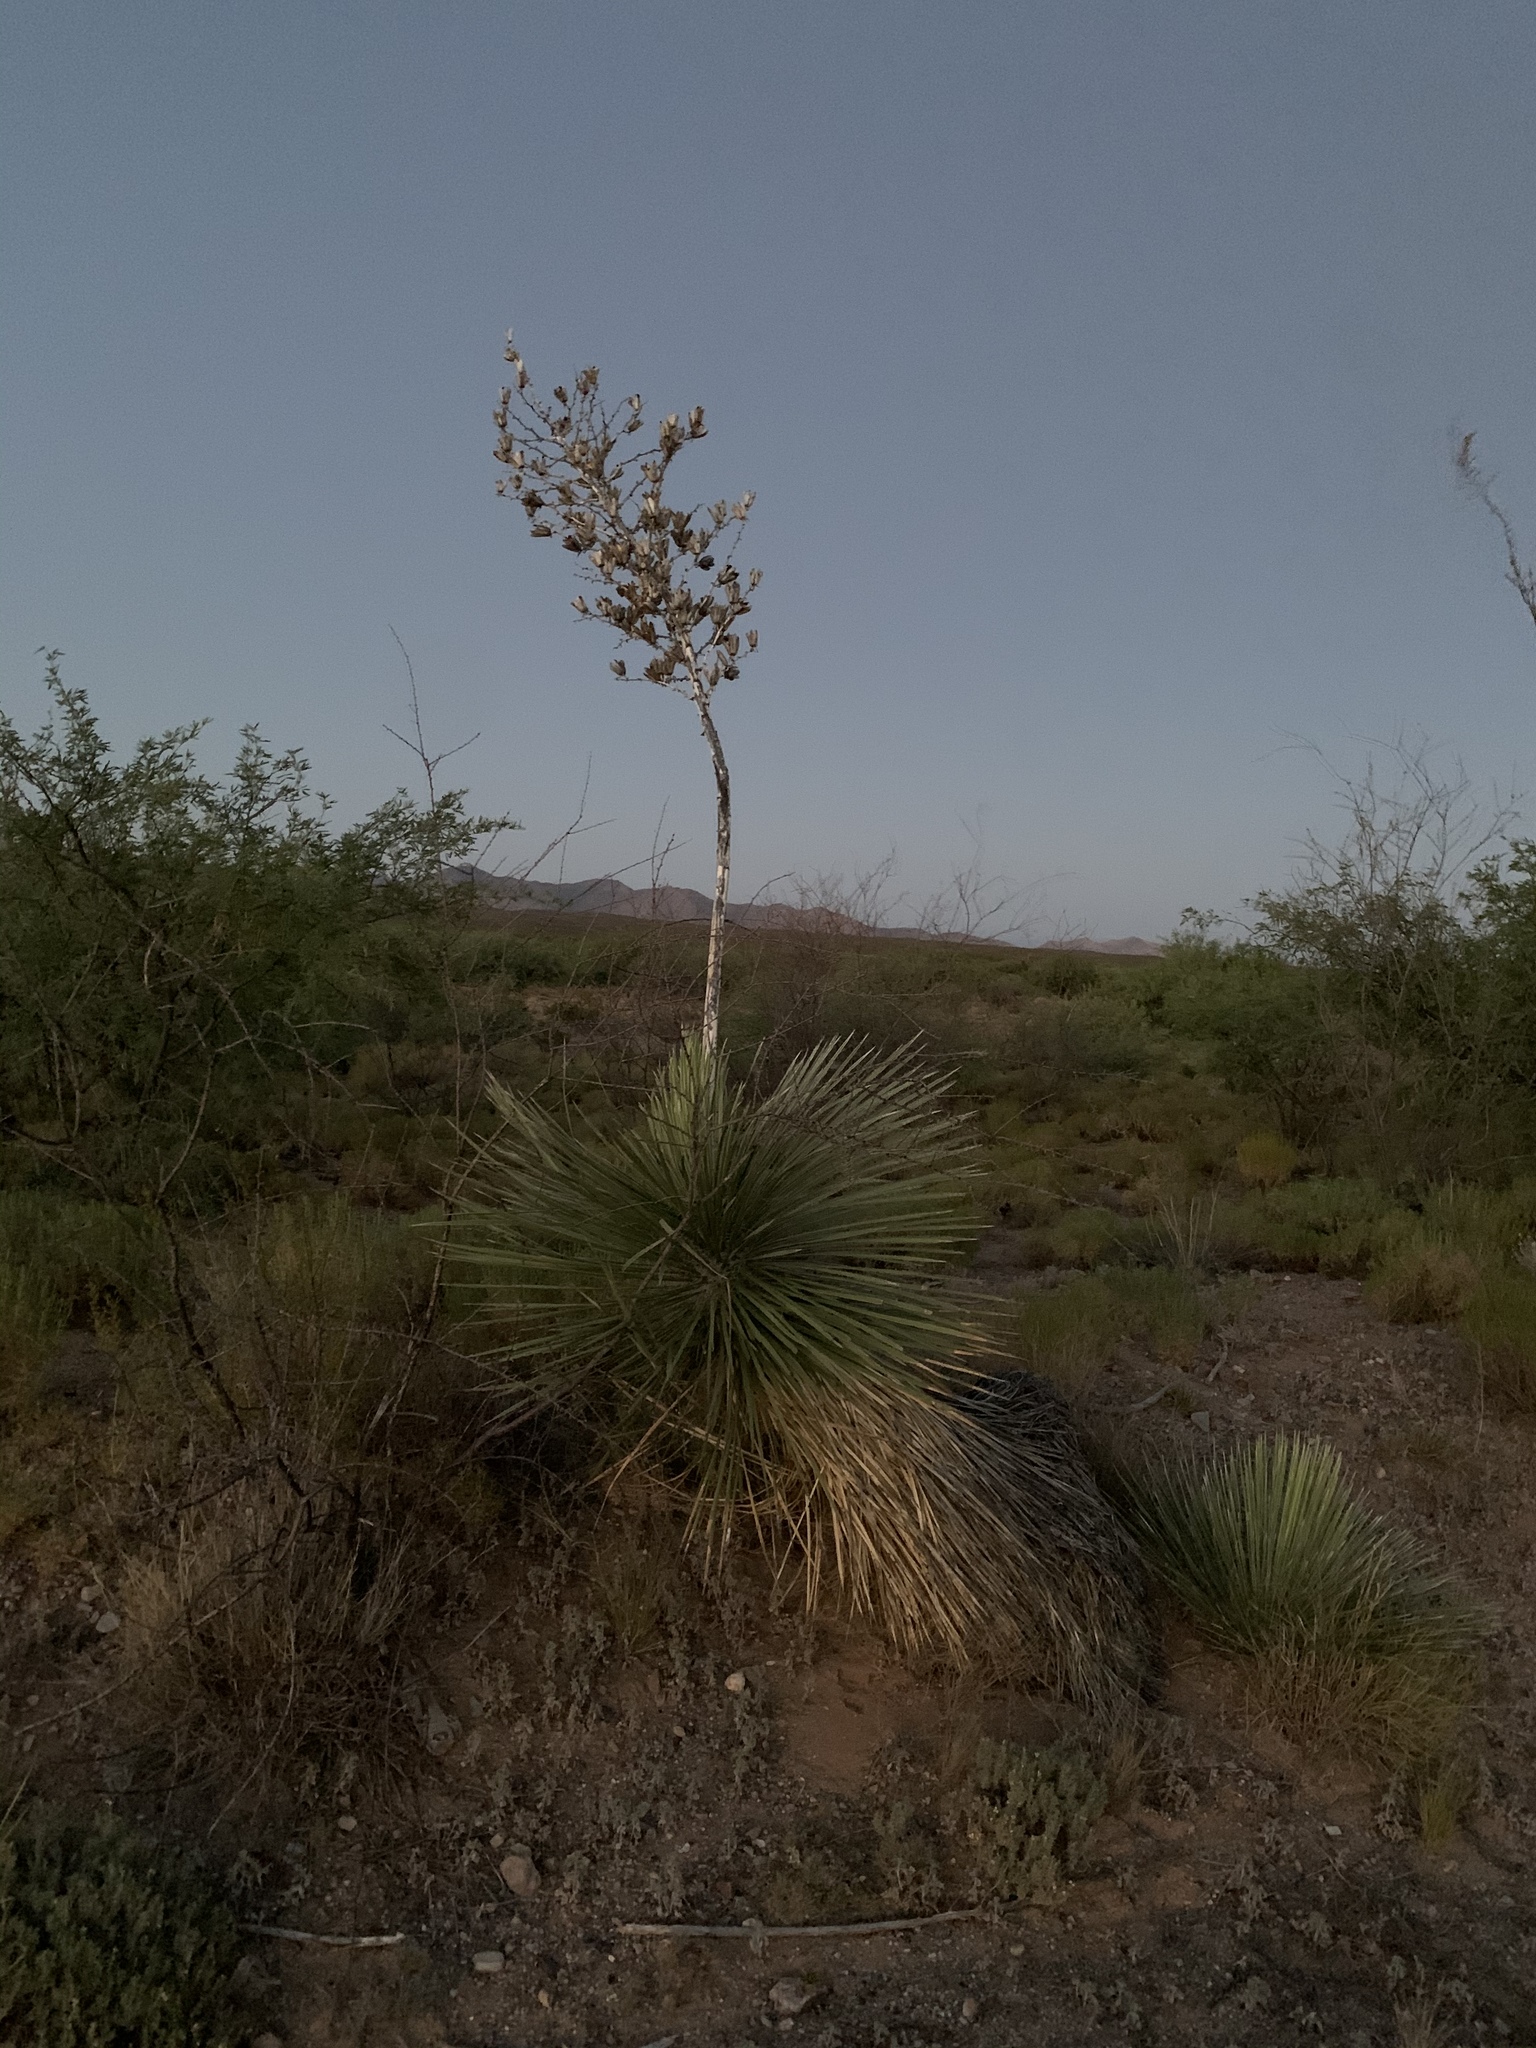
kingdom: Plantae
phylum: Tracheophyta
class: Liliopsida
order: Asparagales
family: Asparagaceae
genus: Yucca
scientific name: Yucca elata
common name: Palmella
